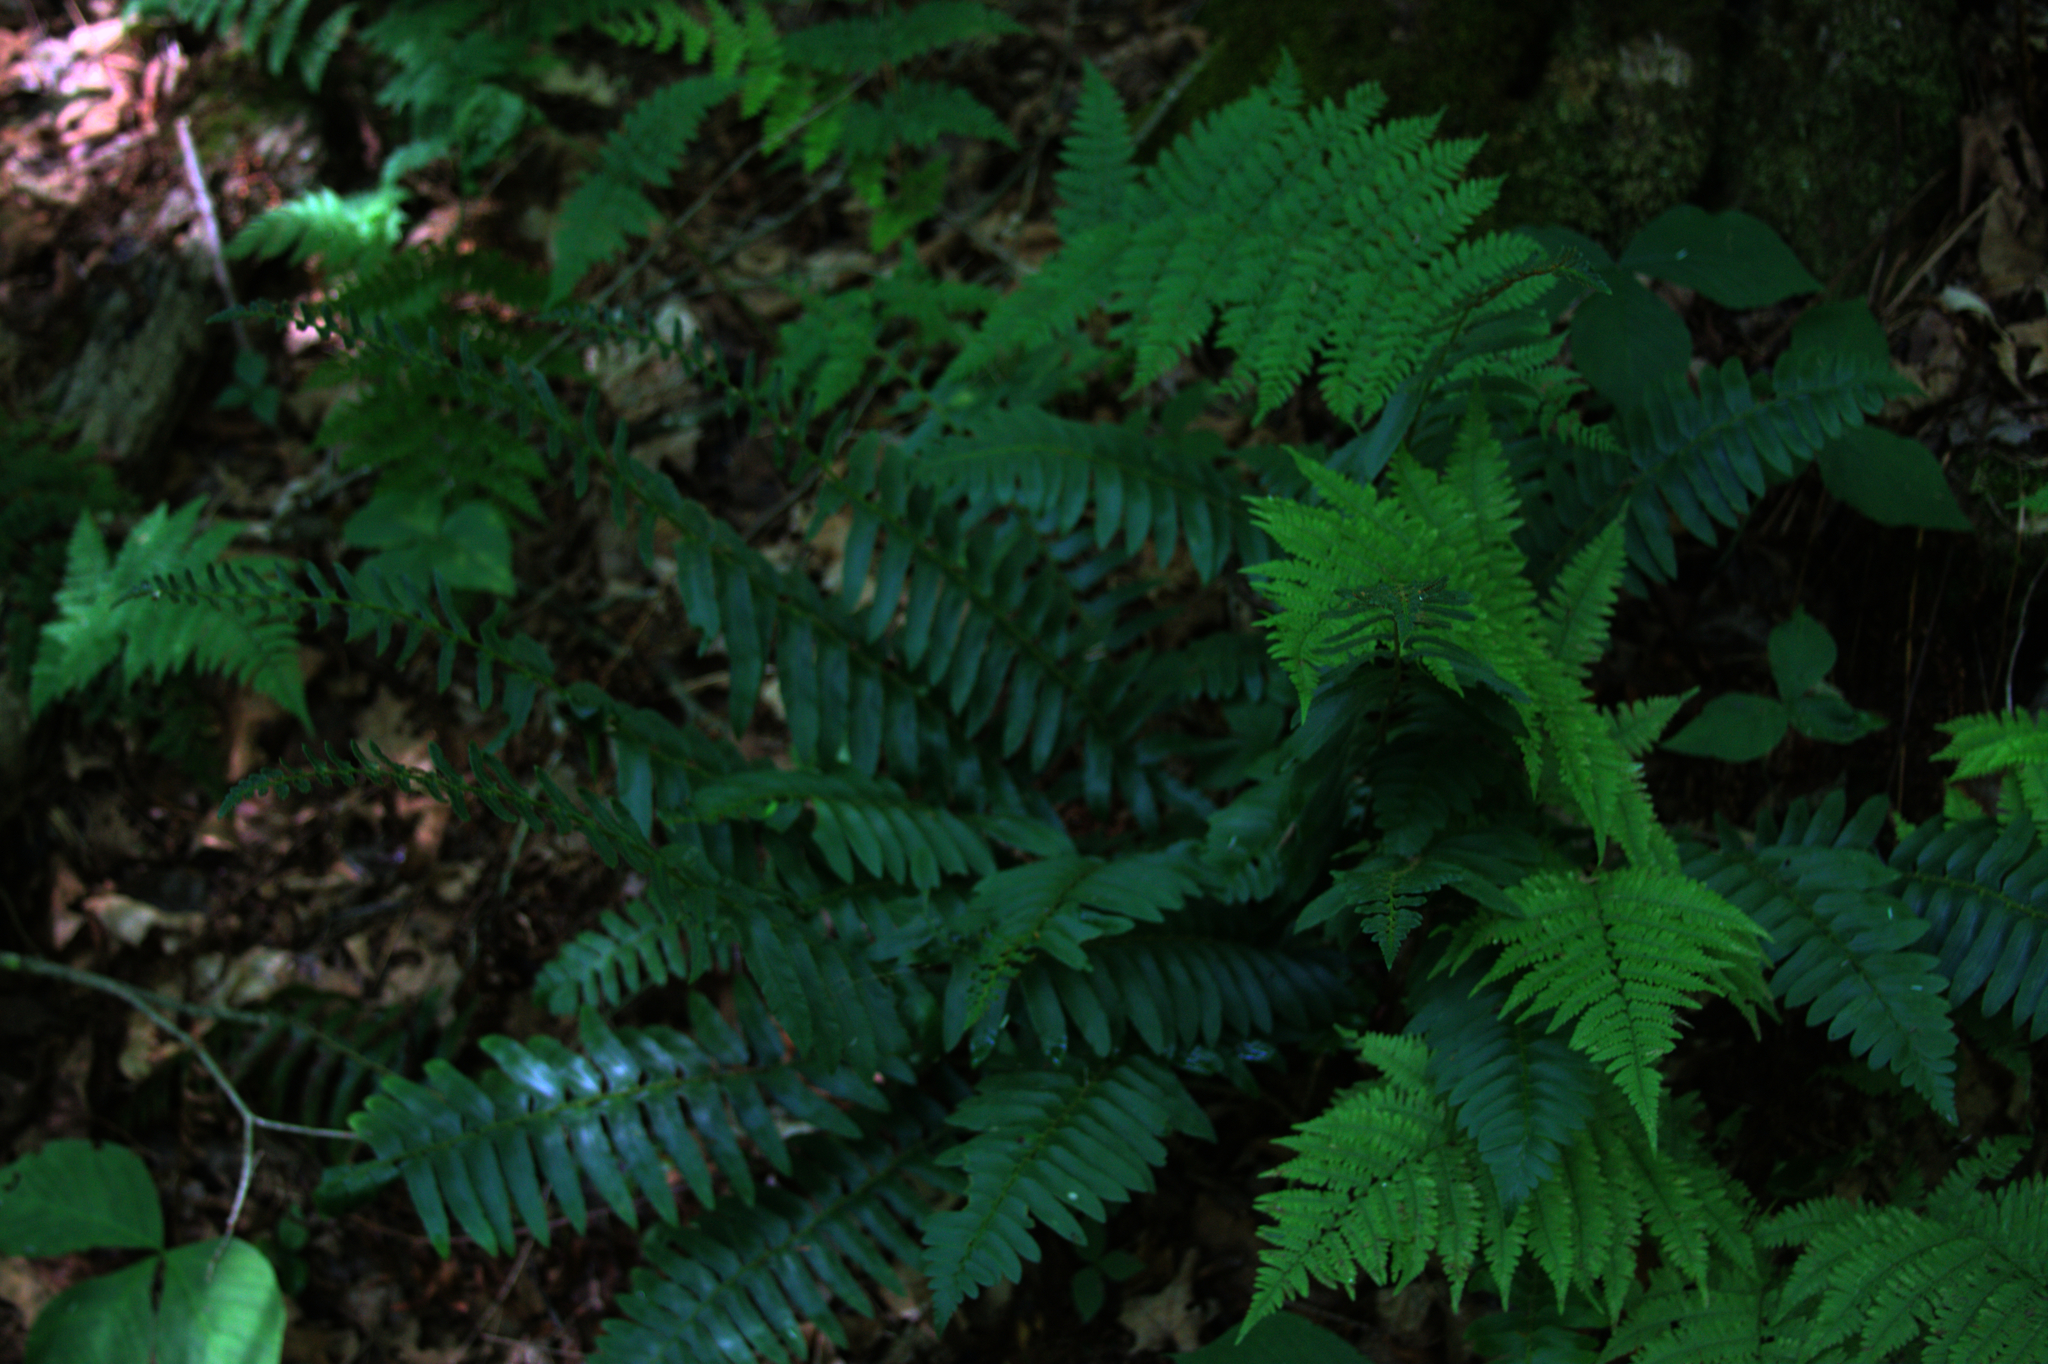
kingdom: Plantae
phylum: Tracheophyta
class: Polypodiopsida
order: Polypodiales
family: Dryopteridaceae
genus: Polystichum
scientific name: Polystichum acrostichoides
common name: Christmas fern
